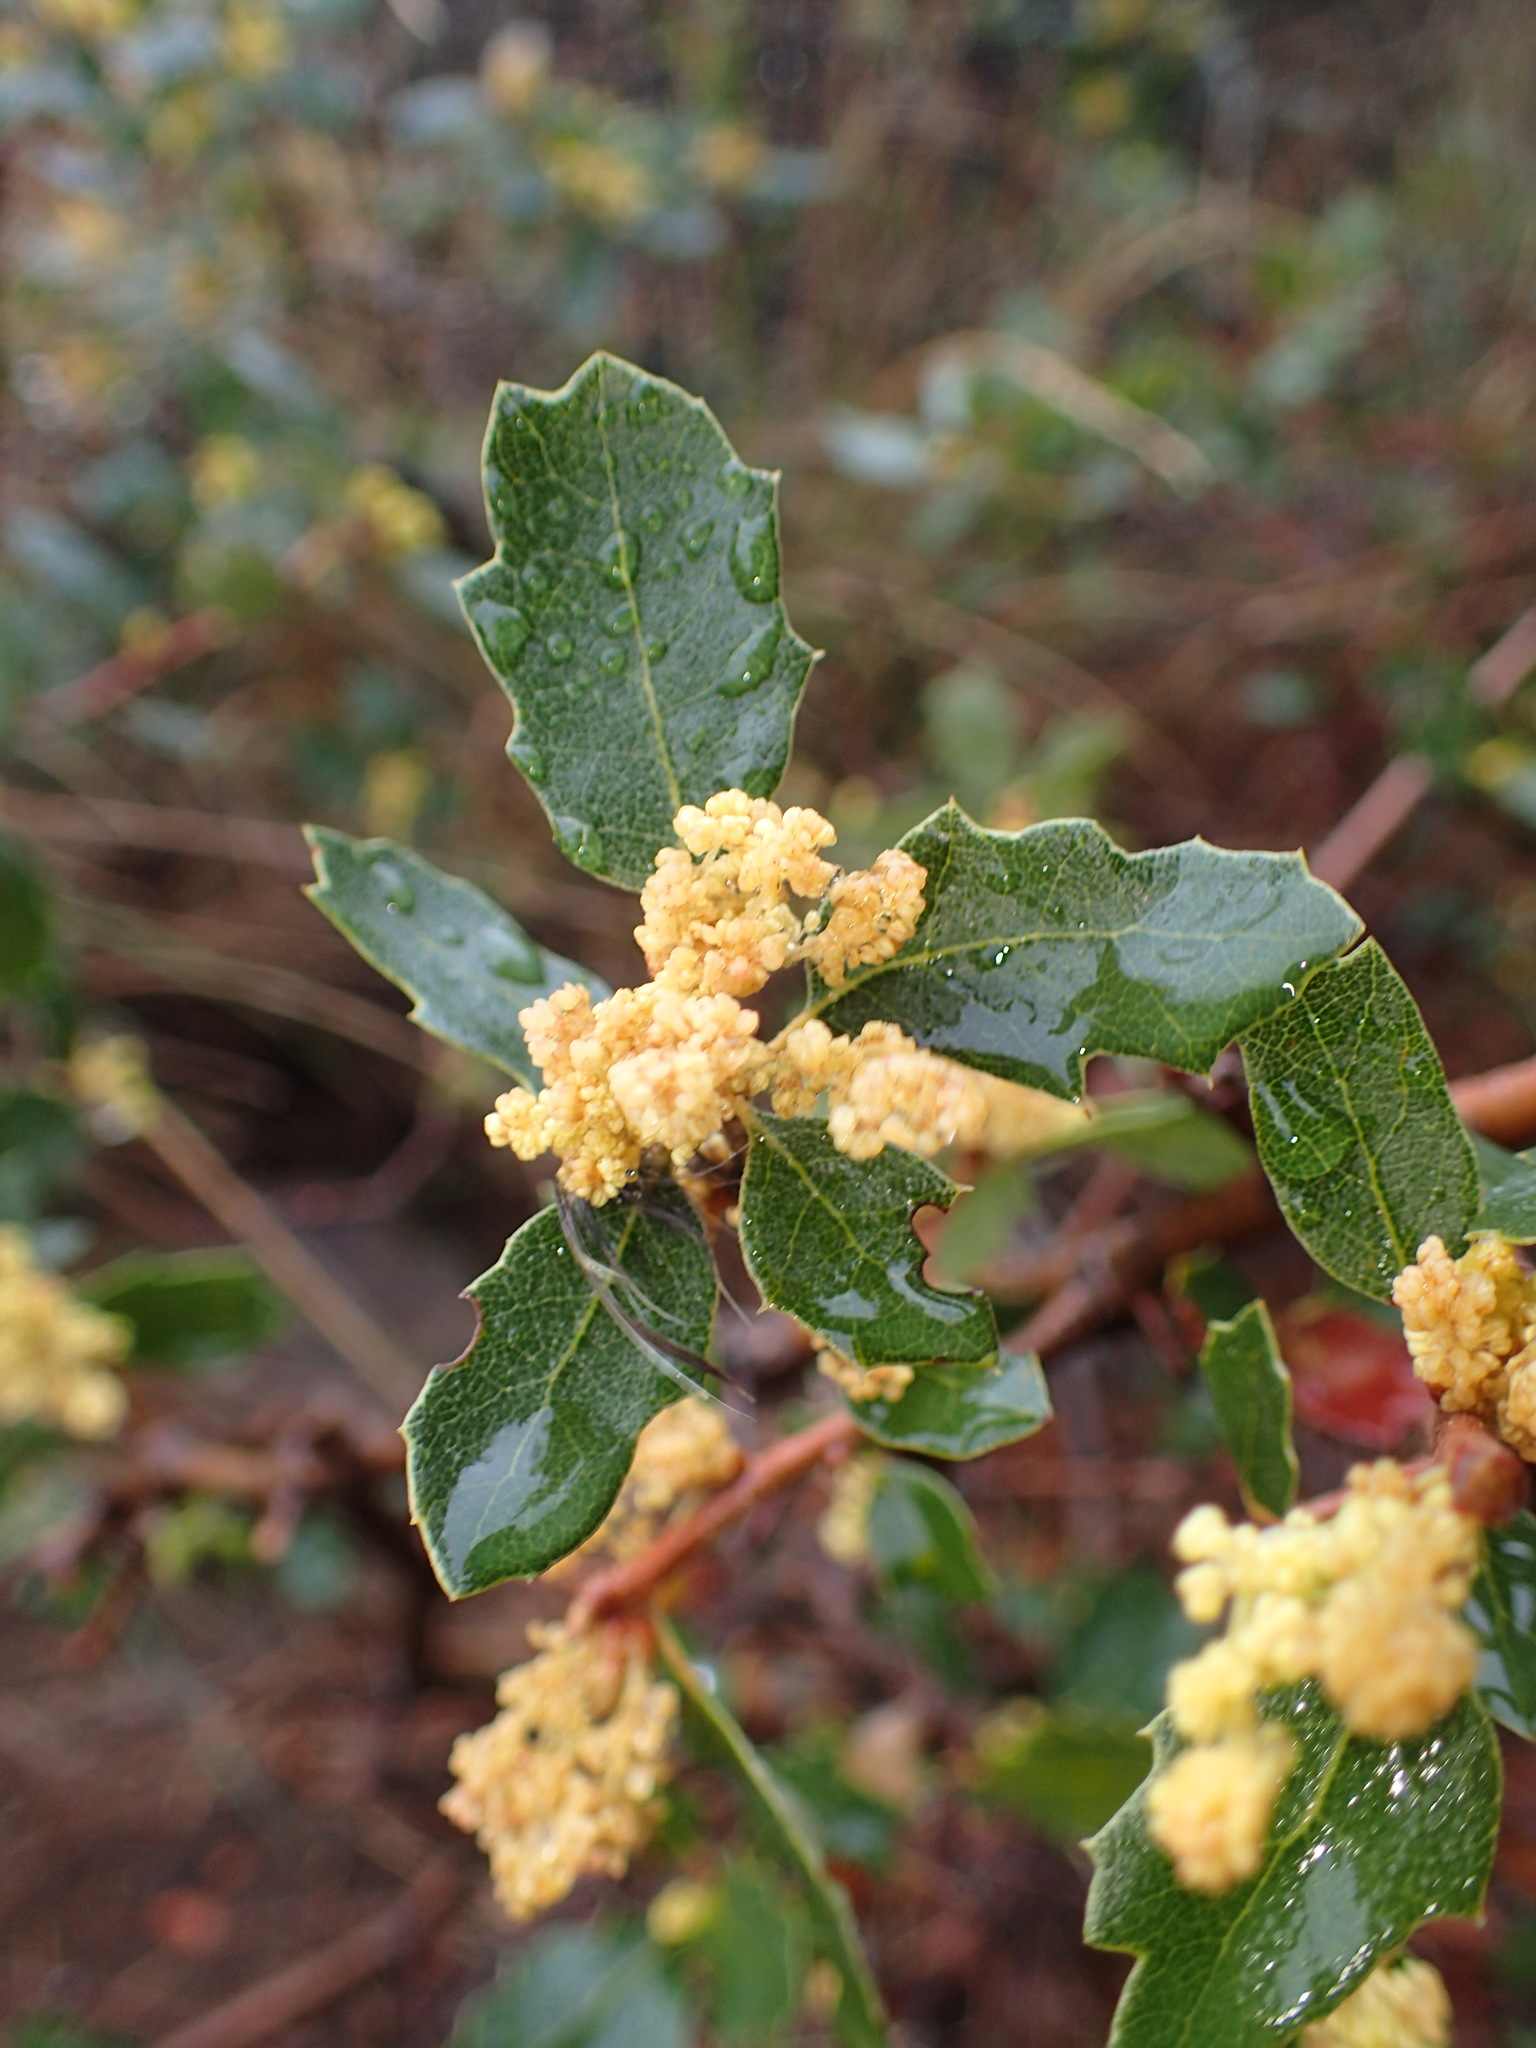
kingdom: Plantae
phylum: Tracheophyta
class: Magnoliopsida
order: Fagales
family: Fagaceae
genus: Quercus
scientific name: Quercus berberidifolia
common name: California scrub oak
